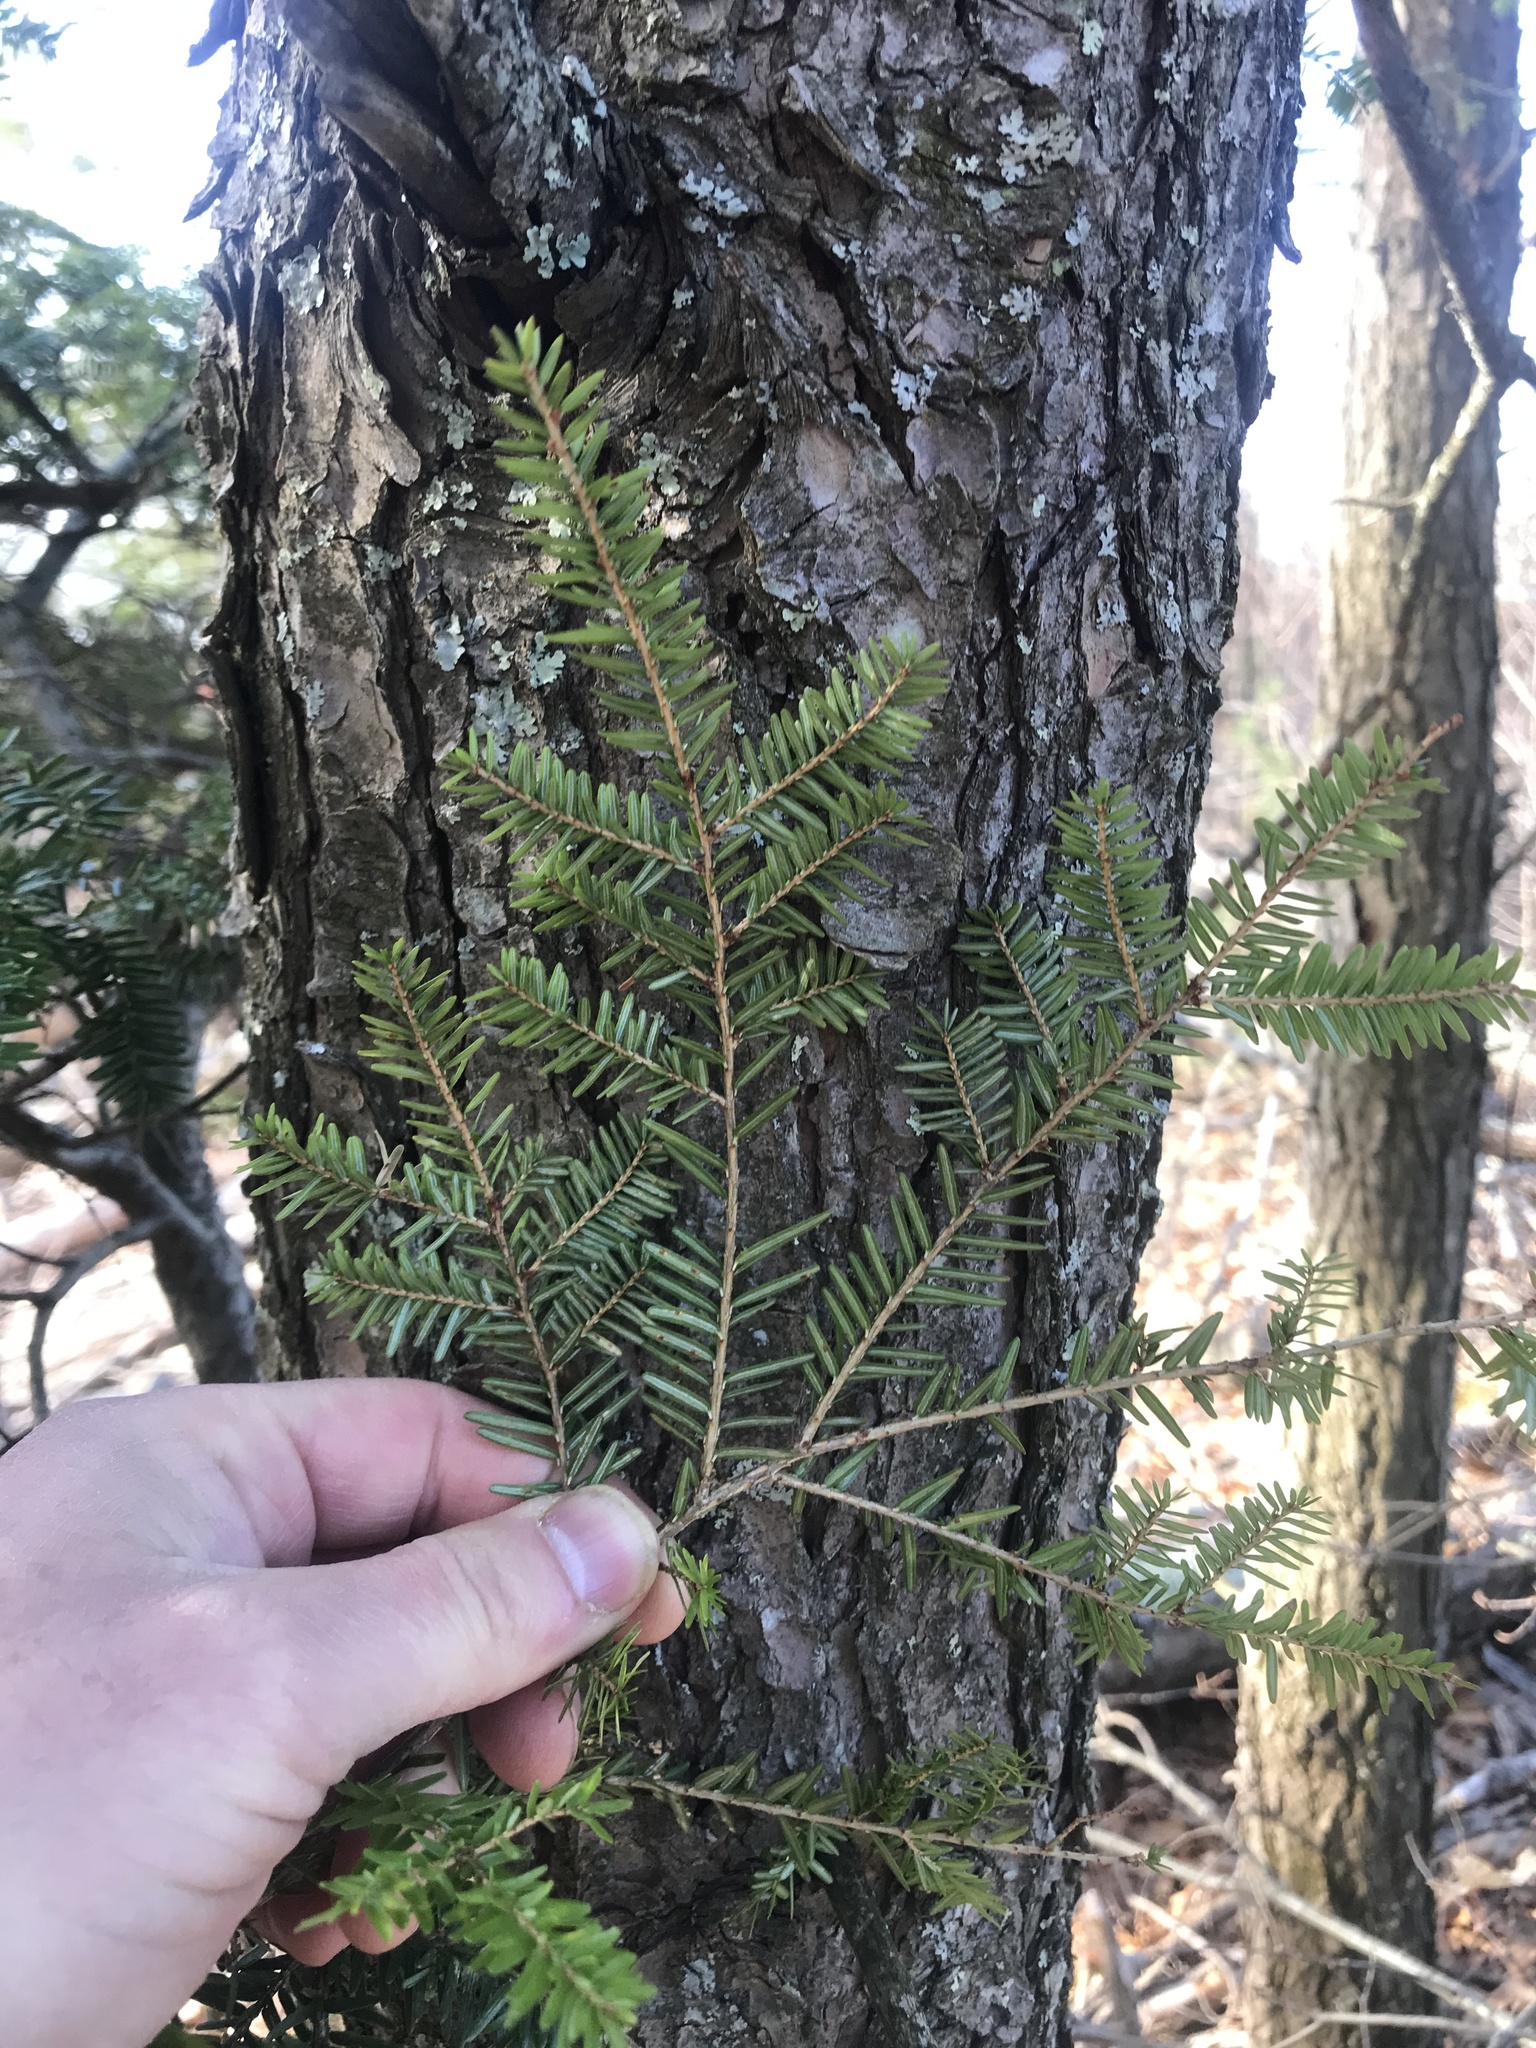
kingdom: Plantae
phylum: Tracheophyta
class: Pinopsida
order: Pinales
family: Pinaceae
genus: Tsuga
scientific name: Tsuga canadensis
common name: Eastern hemlock
